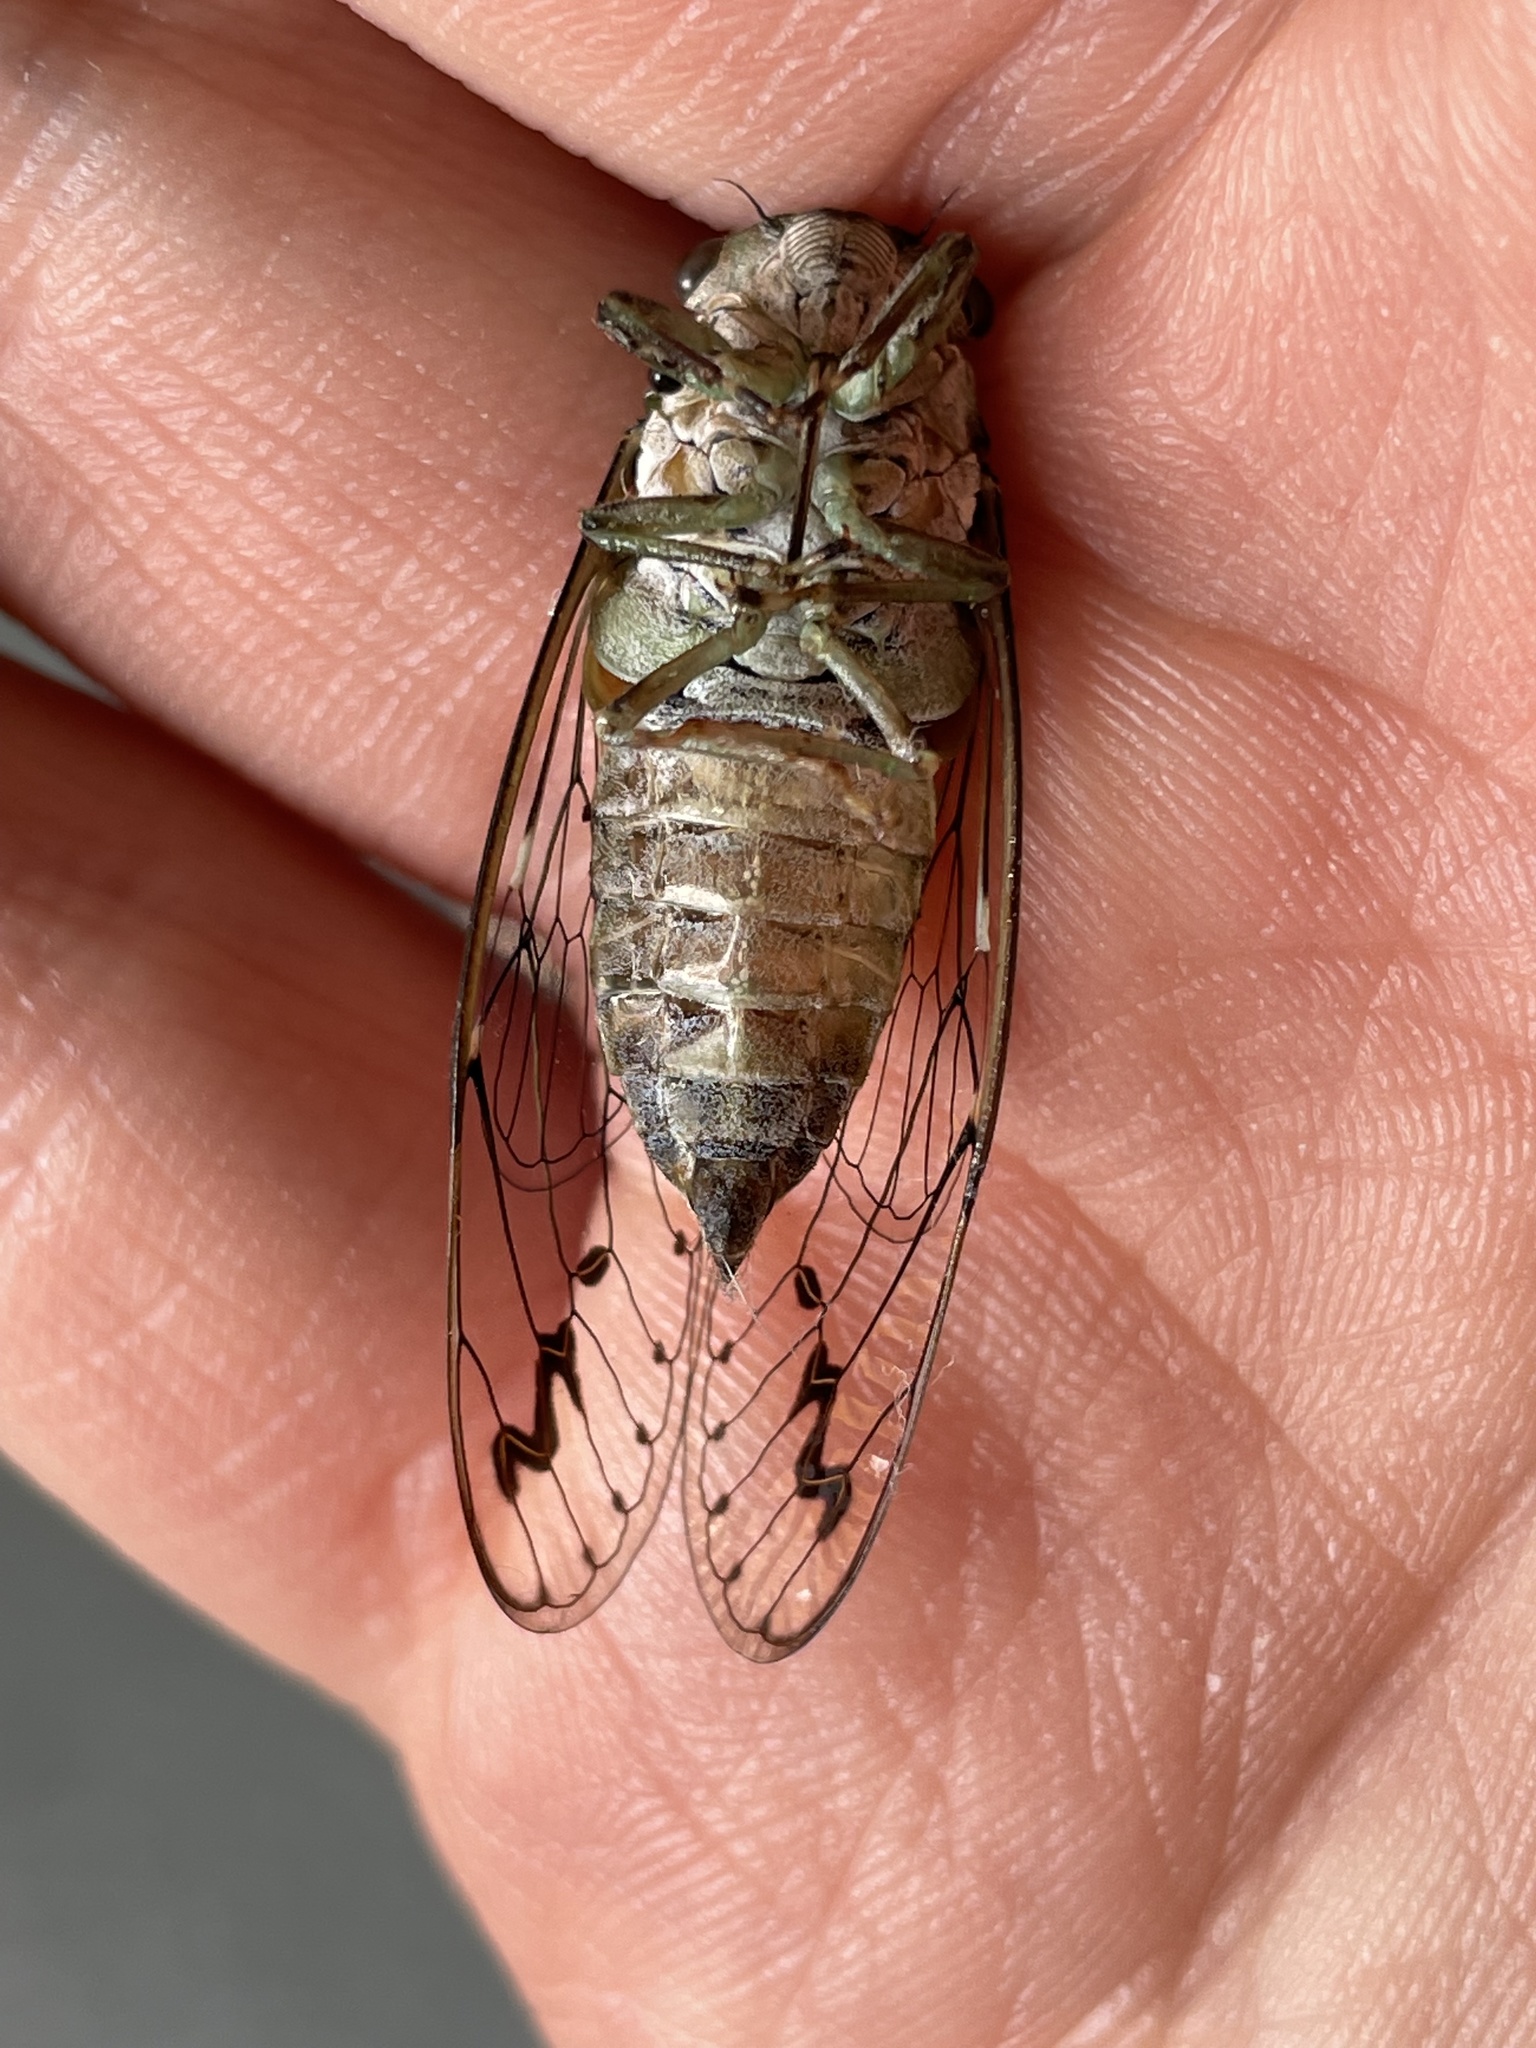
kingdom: Animalia
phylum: Arthropoda
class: Insecta
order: Hemiptera
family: Cicadidae
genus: Neocicada
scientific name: Neocicada hieroglyphica
